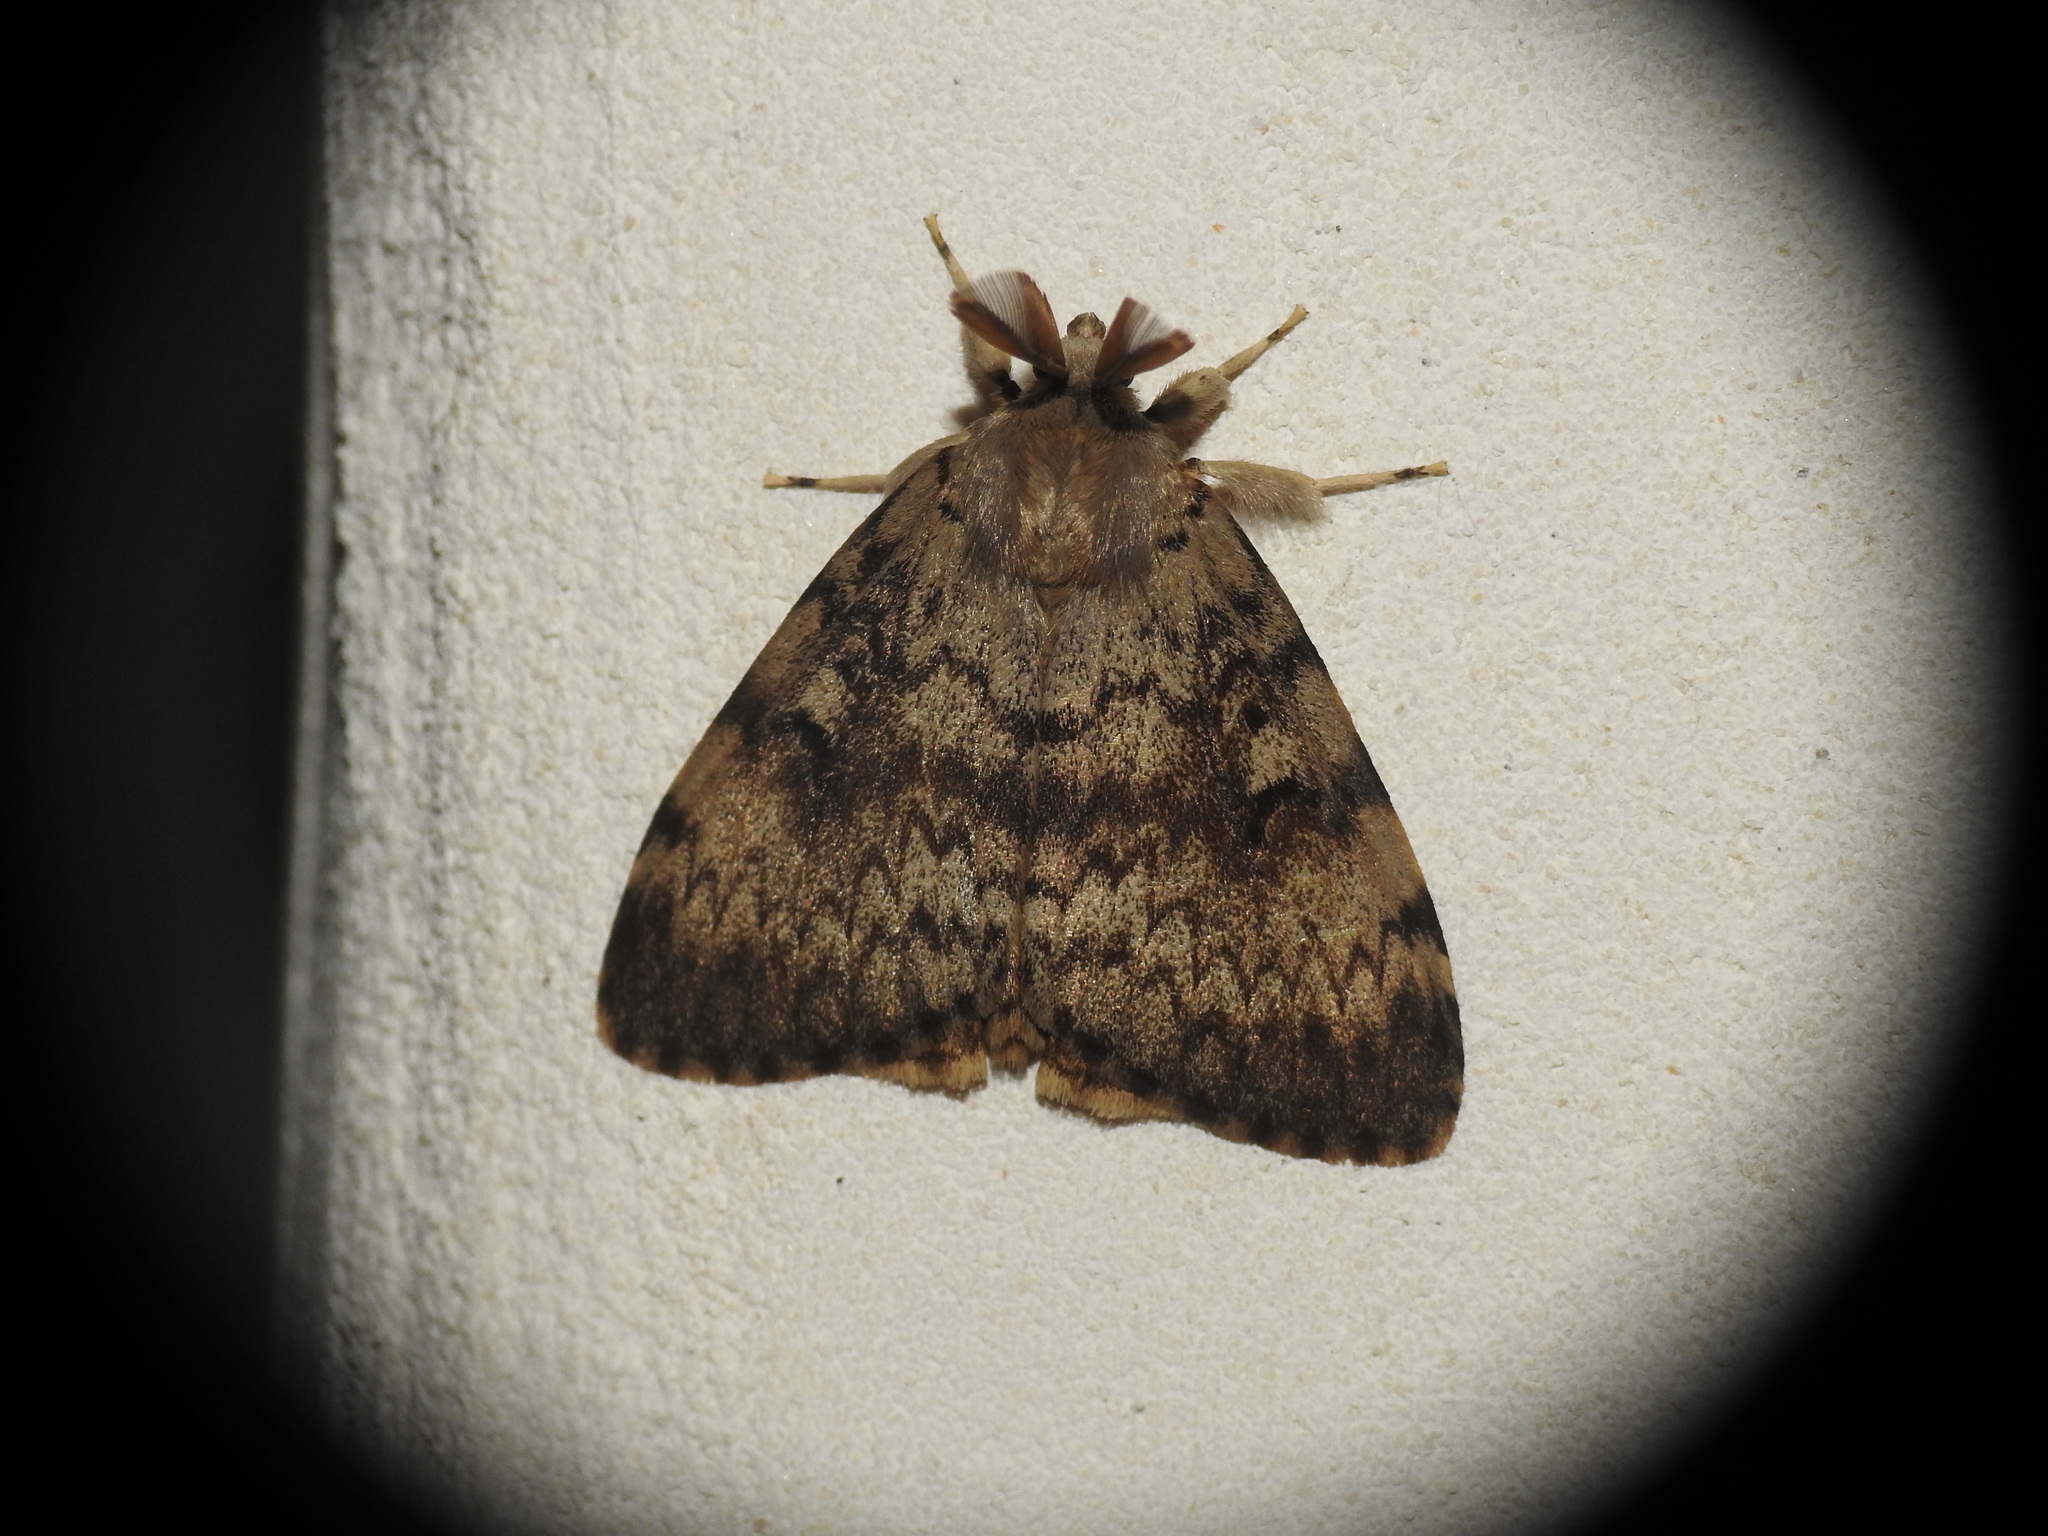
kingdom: Animalia
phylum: Arthropoda
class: Insecta
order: Lepidoptera
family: Erebidae
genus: Lymantria
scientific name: Lymantria dispar
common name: Gypsy moth
